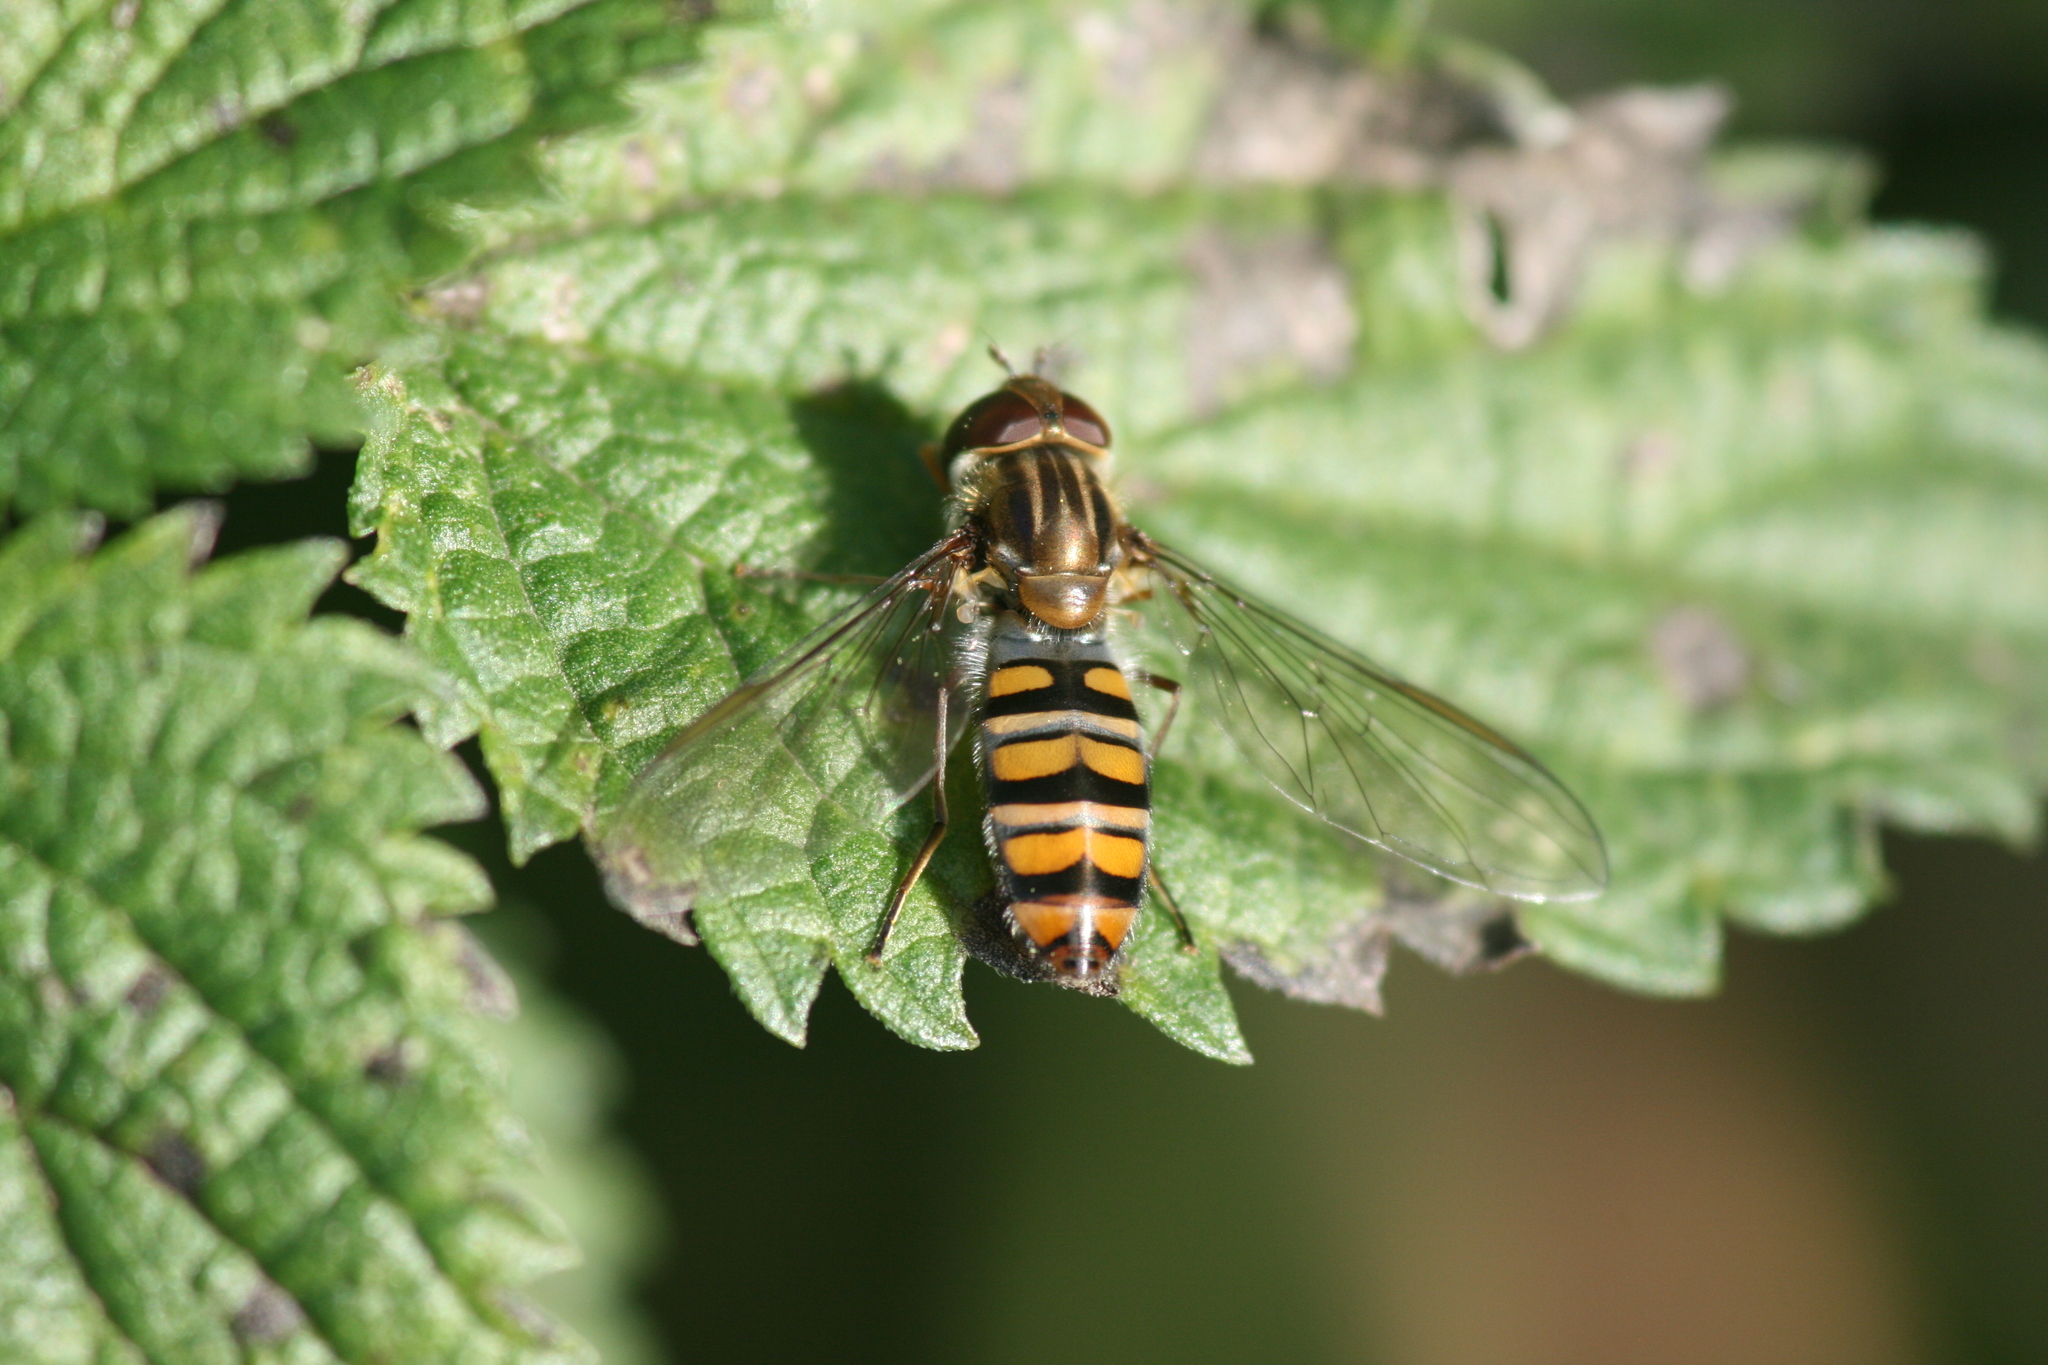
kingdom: Animalia
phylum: Arthropoda
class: Insecta
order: Diptera
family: Syrphidae
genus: Episyrphus
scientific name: Episyrphus balteatus
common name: Marmalade hoverfly
